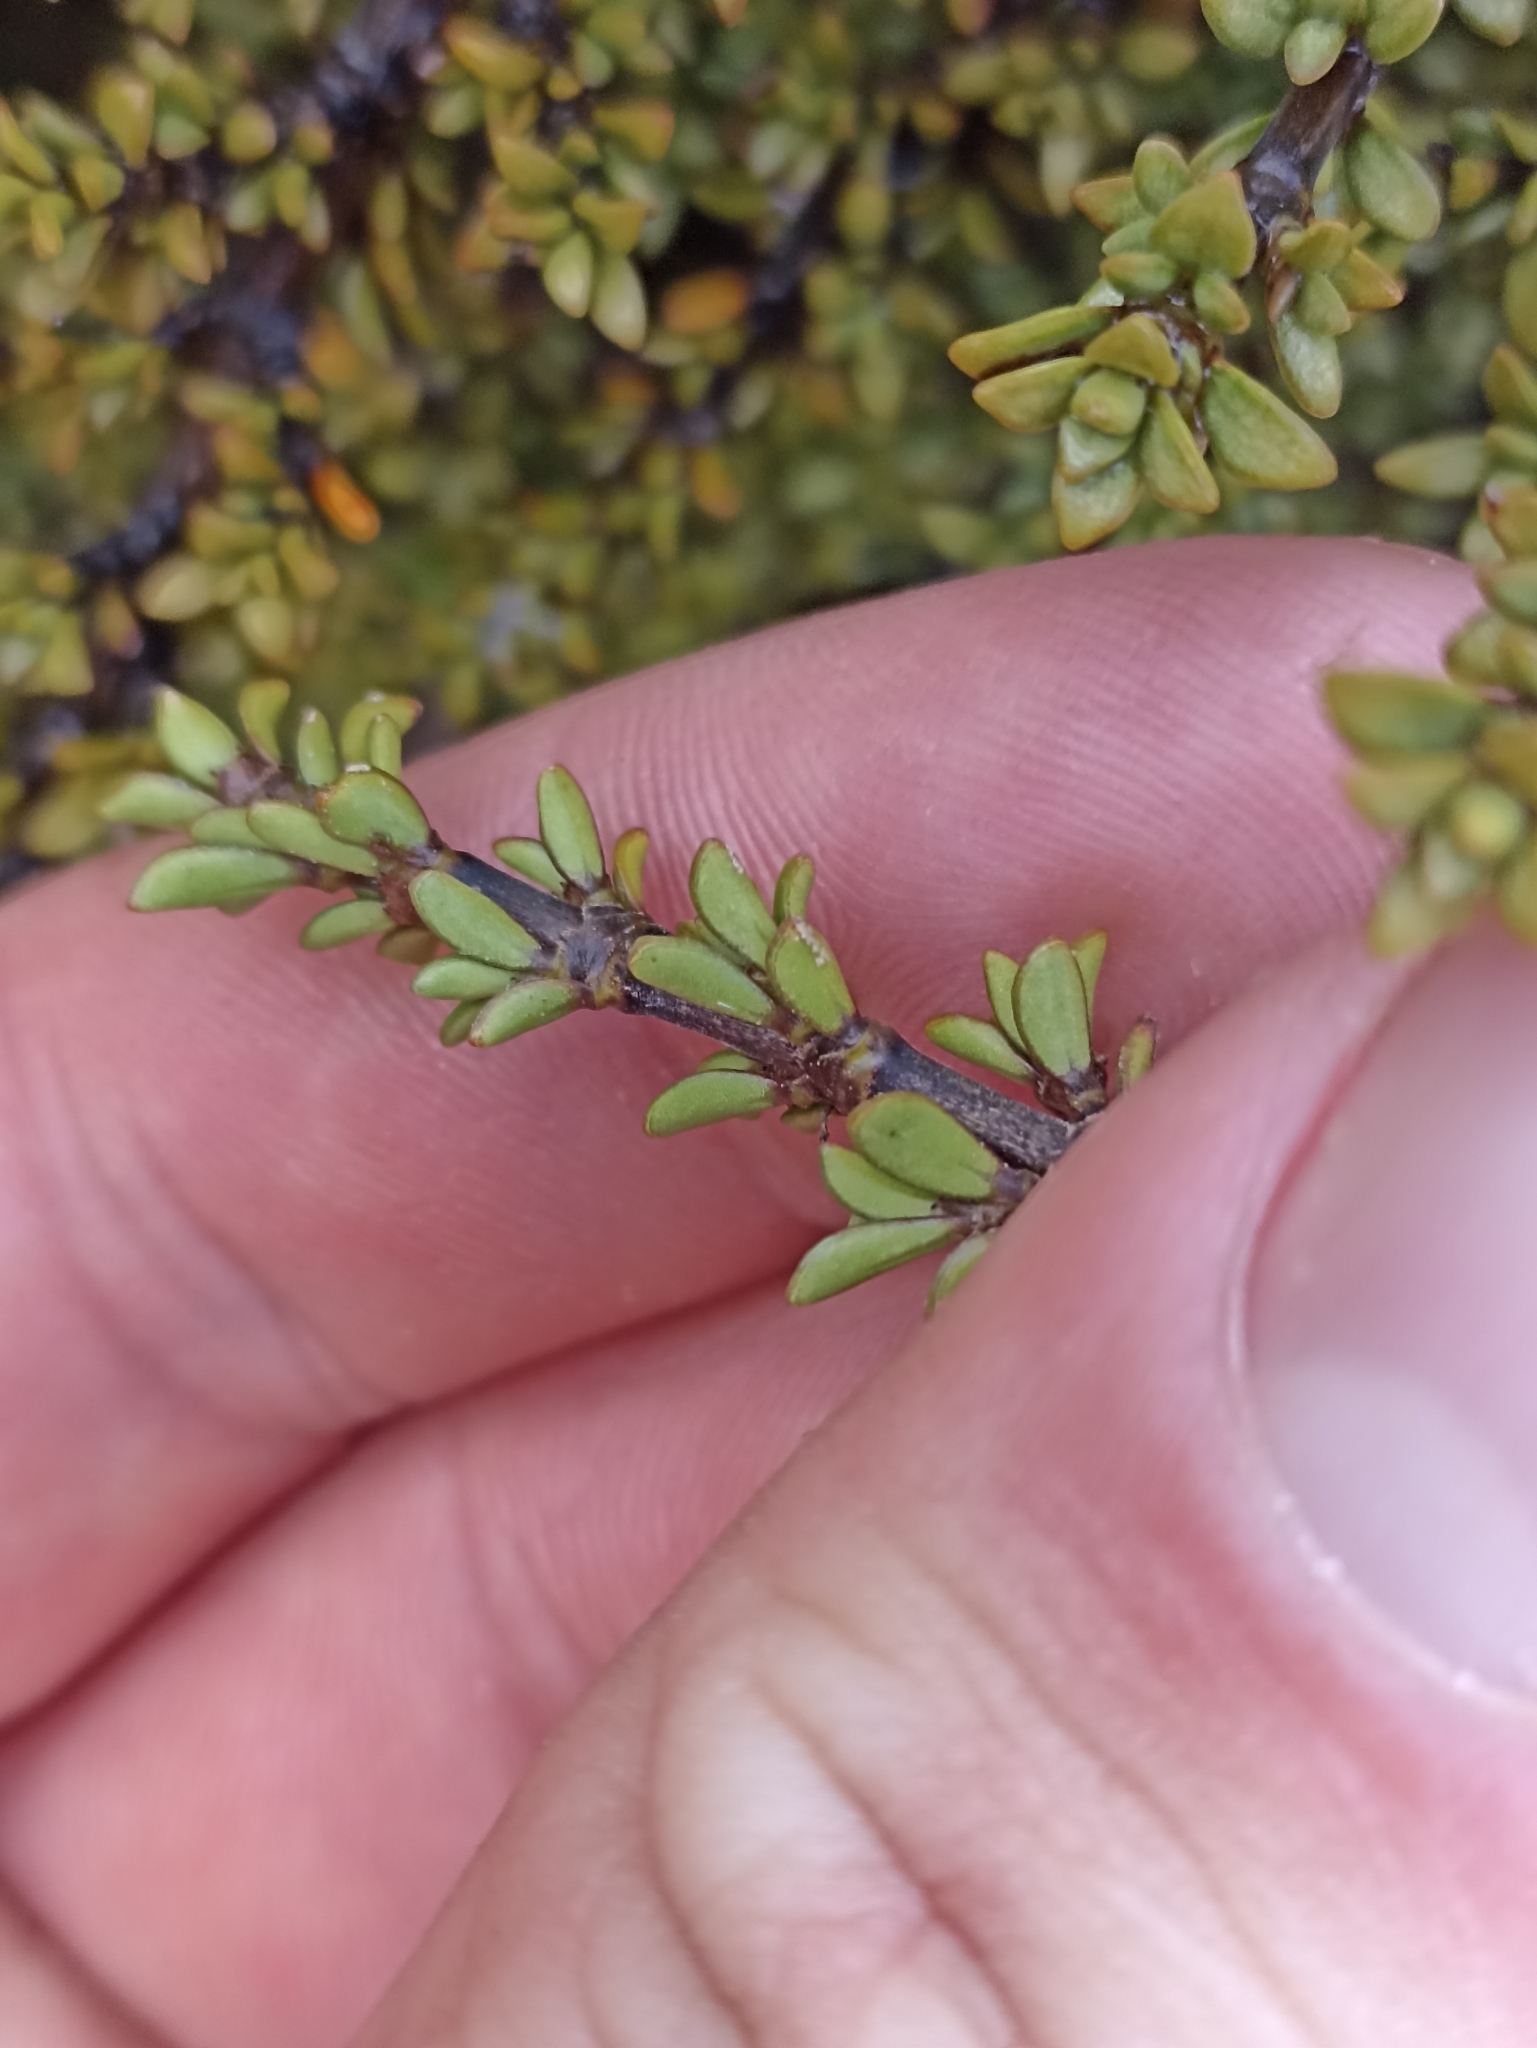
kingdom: Plantae
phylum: Tracheophyta
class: Magnoliopsida
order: Gentianales
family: Rubiaceae
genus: Coprosma
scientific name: Coprosma fowerakeri
